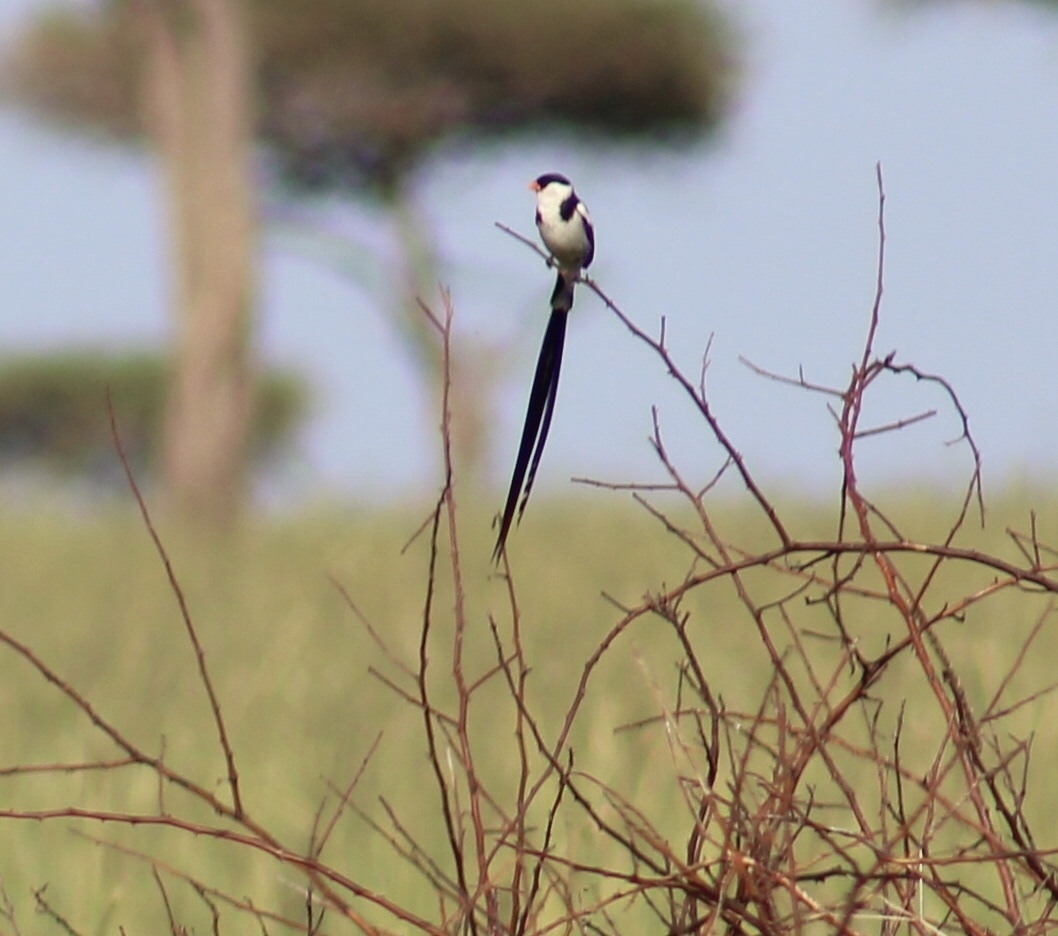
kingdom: Animalia
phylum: Chordata
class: Aves
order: Passeriformes
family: Viduidae
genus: Vidua
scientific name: Vidua macroura
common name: Pin-tailed whydah
